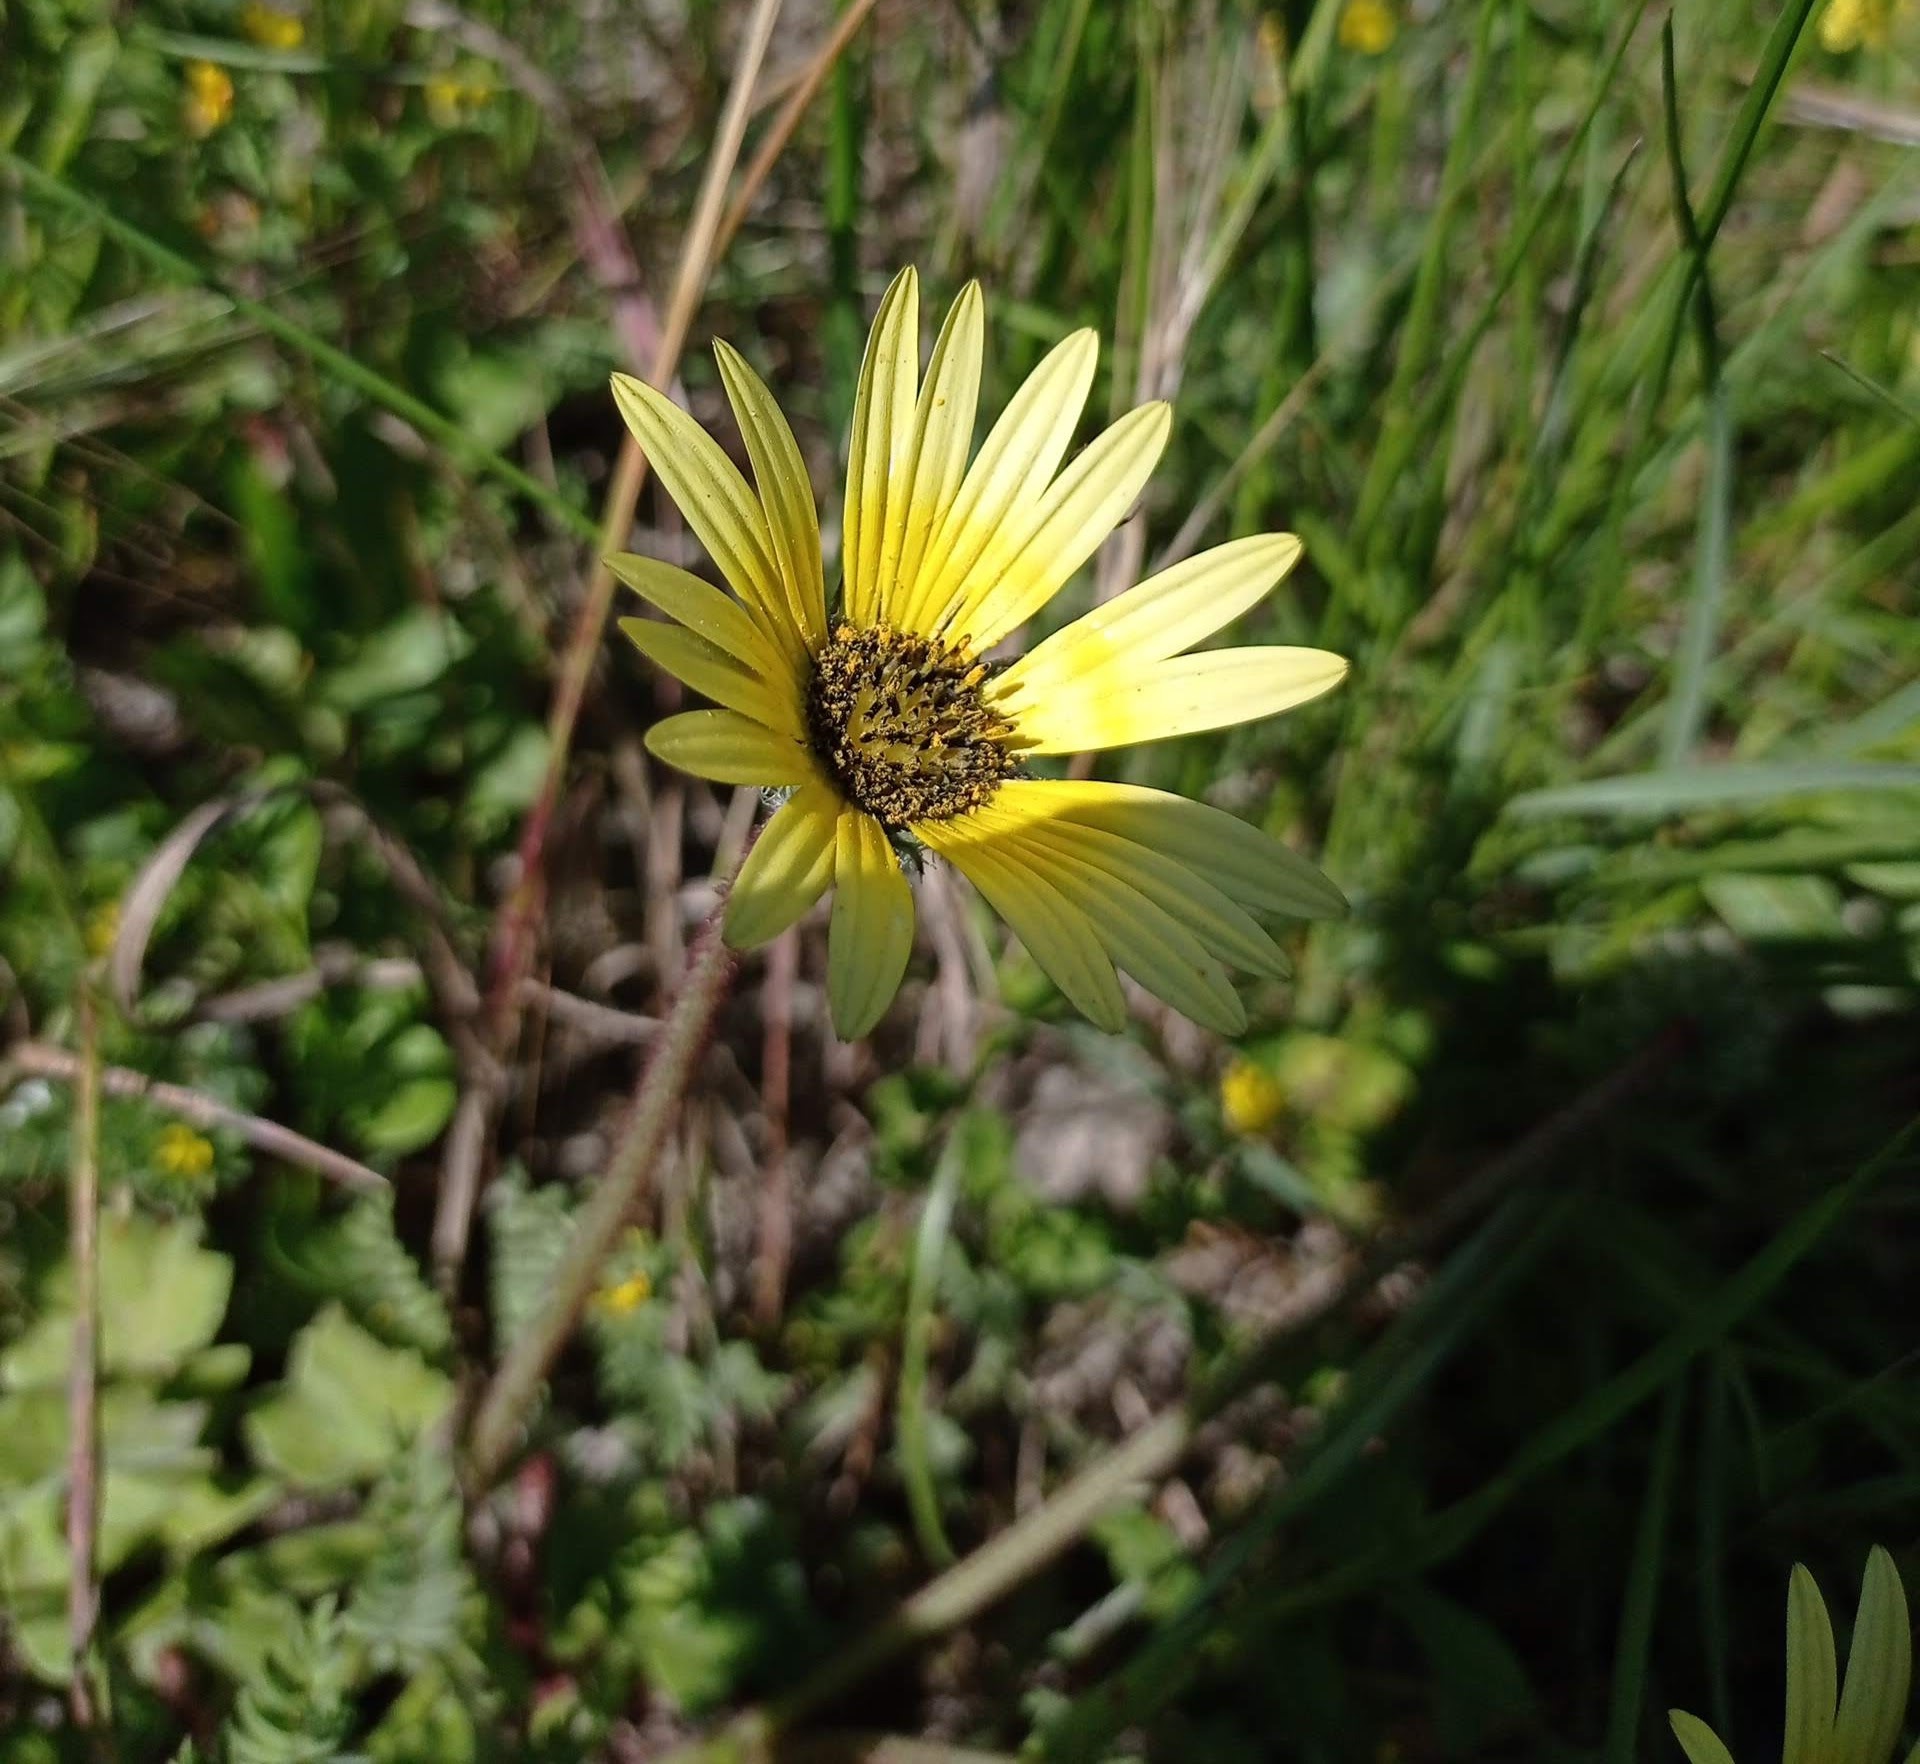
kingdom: Plantae
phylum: Tracheophyta
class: Magnoliopsida
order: Asterales
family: Asteraceae
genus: Arctotheca
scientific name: Arctotheca calendula
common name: Capeweed
